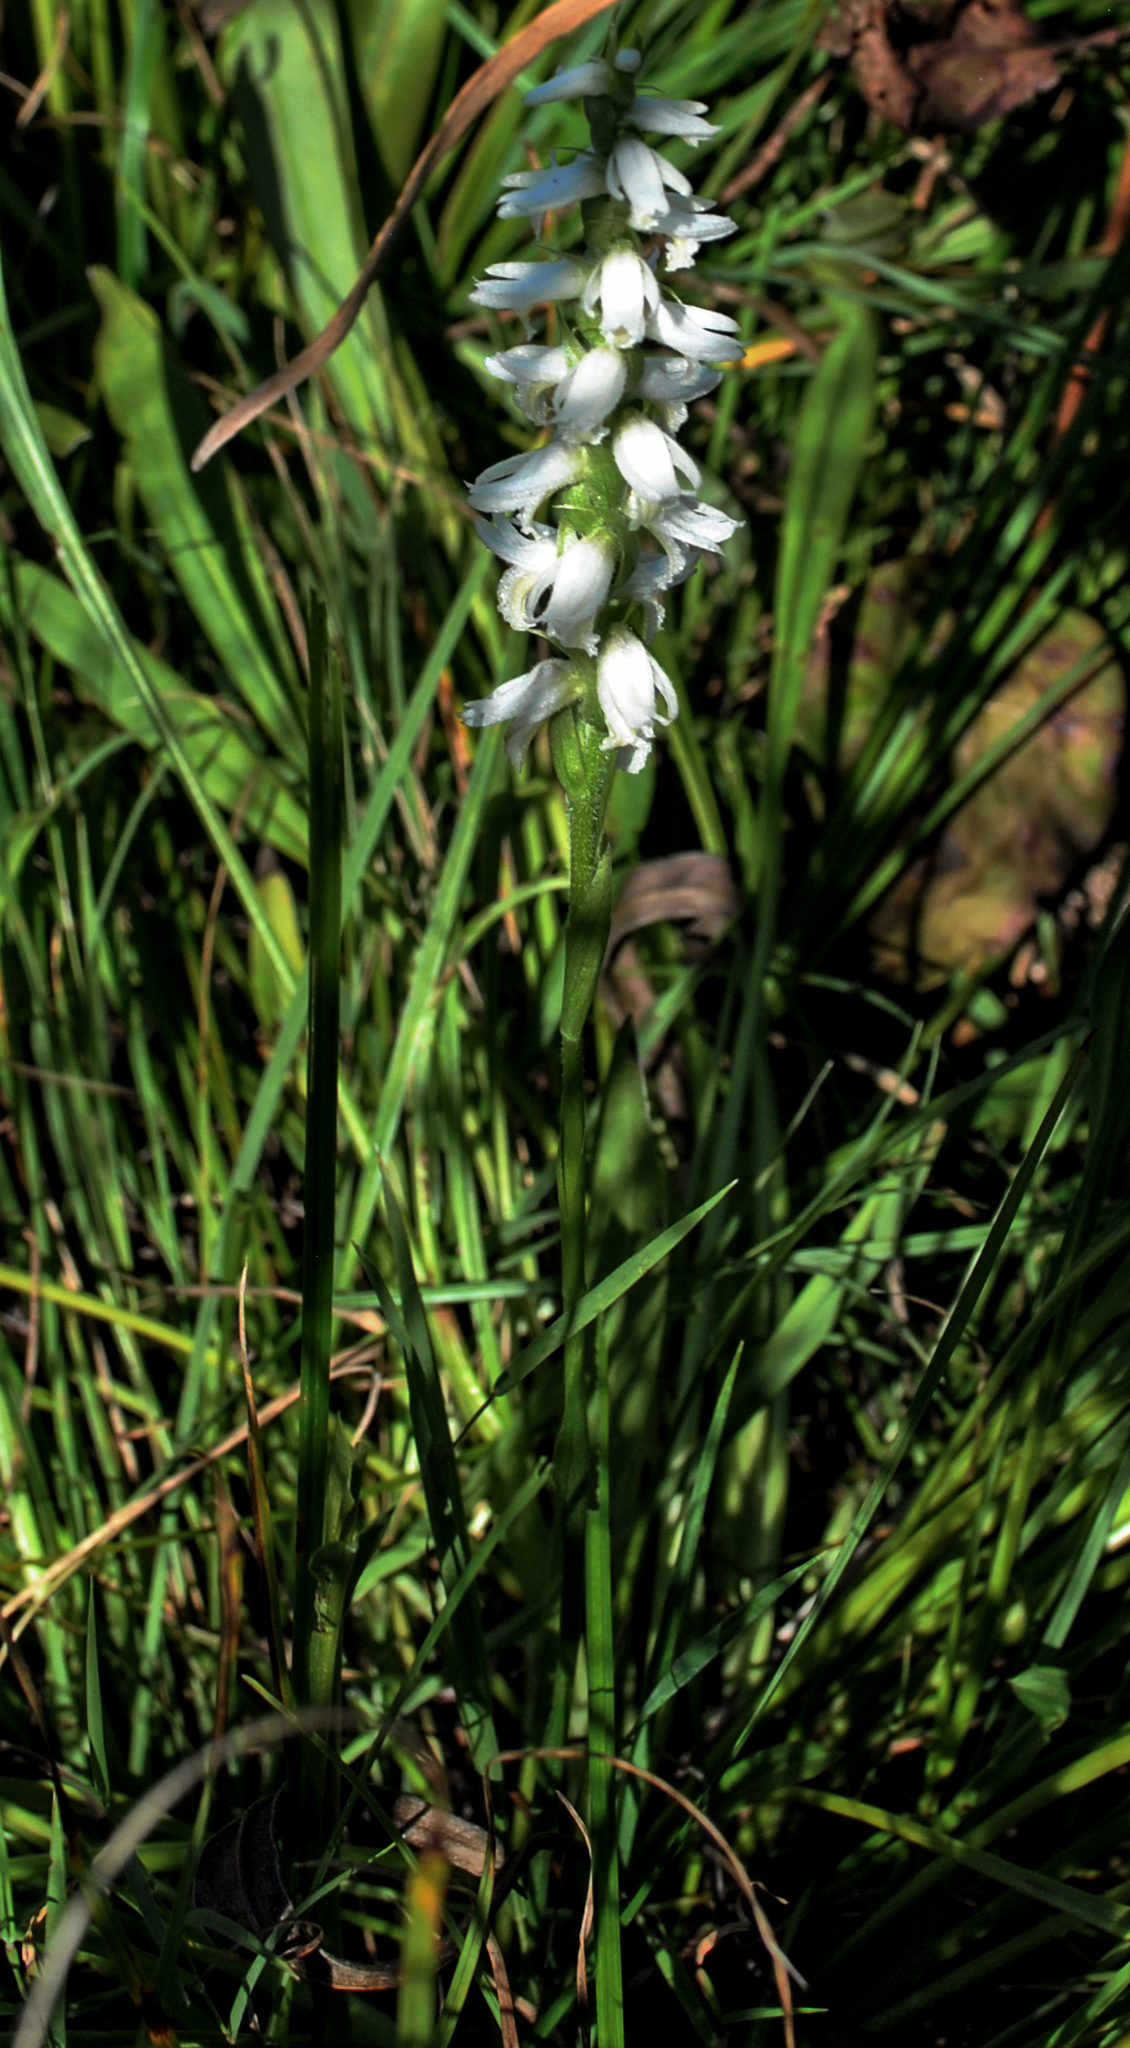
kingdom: Plantae
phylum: Tracheophyta
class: Liliopsida
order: Asparagales
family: Orchidaceae
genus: Spiranthes
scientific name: Spiranthes magnicamporum
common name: Great plains ladies'-tresses
